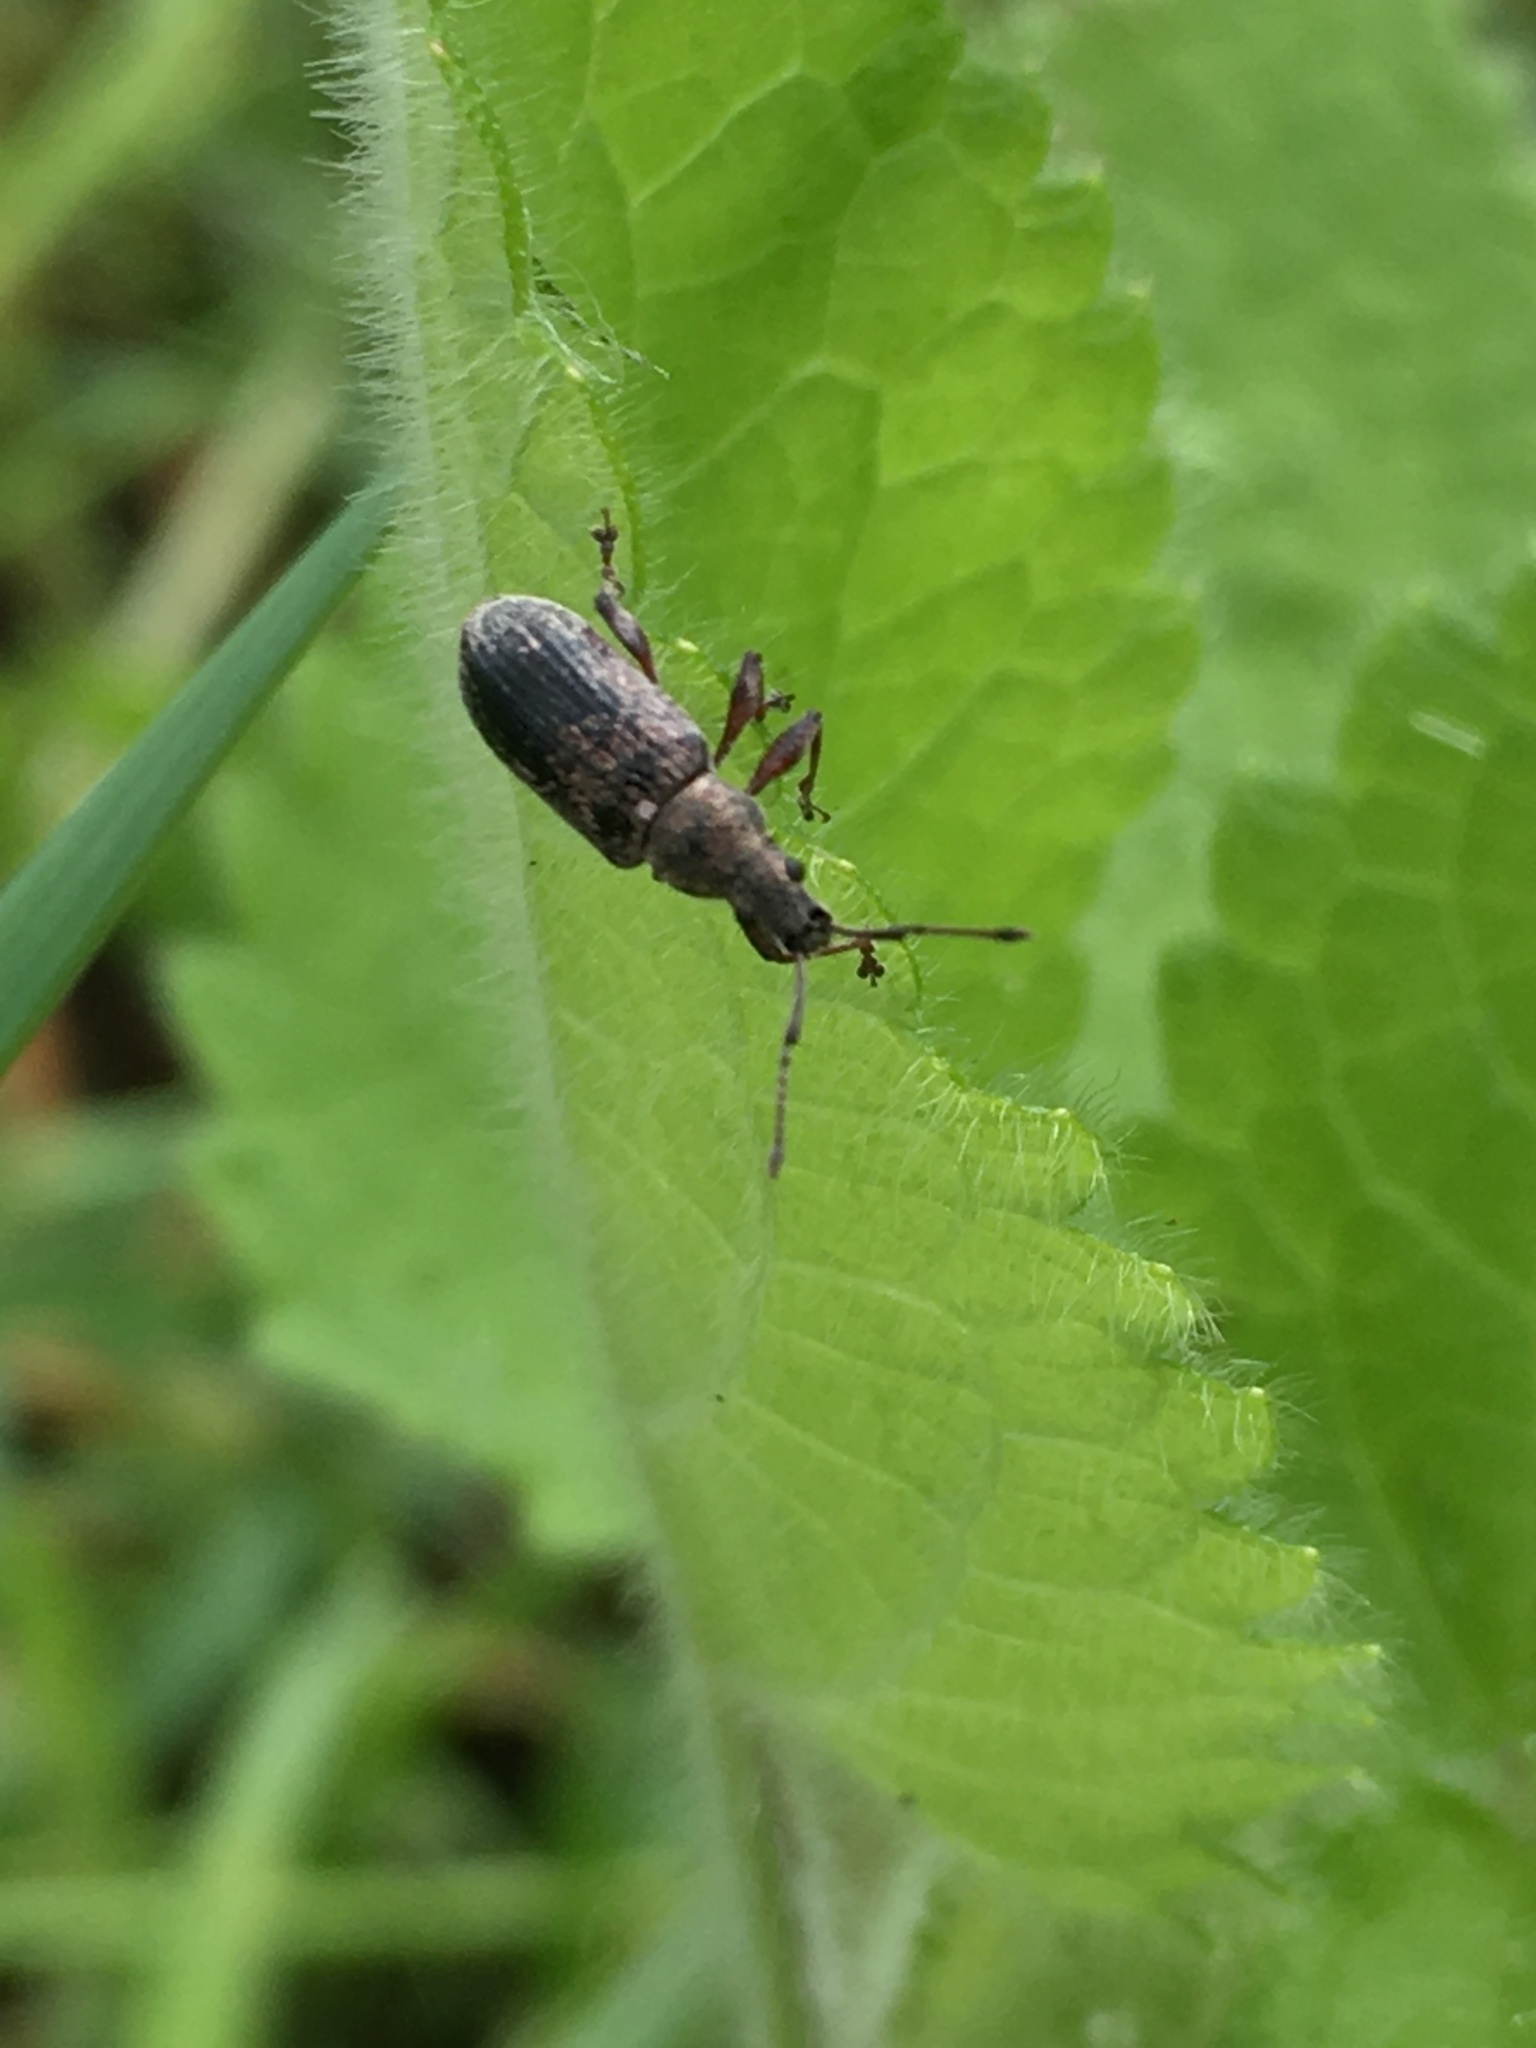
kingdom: Animalia
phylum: Arthropoda
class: Insecta
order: Coleoptera
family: Cantharidae
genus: Cantharis
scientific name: Cantharis nigricans
